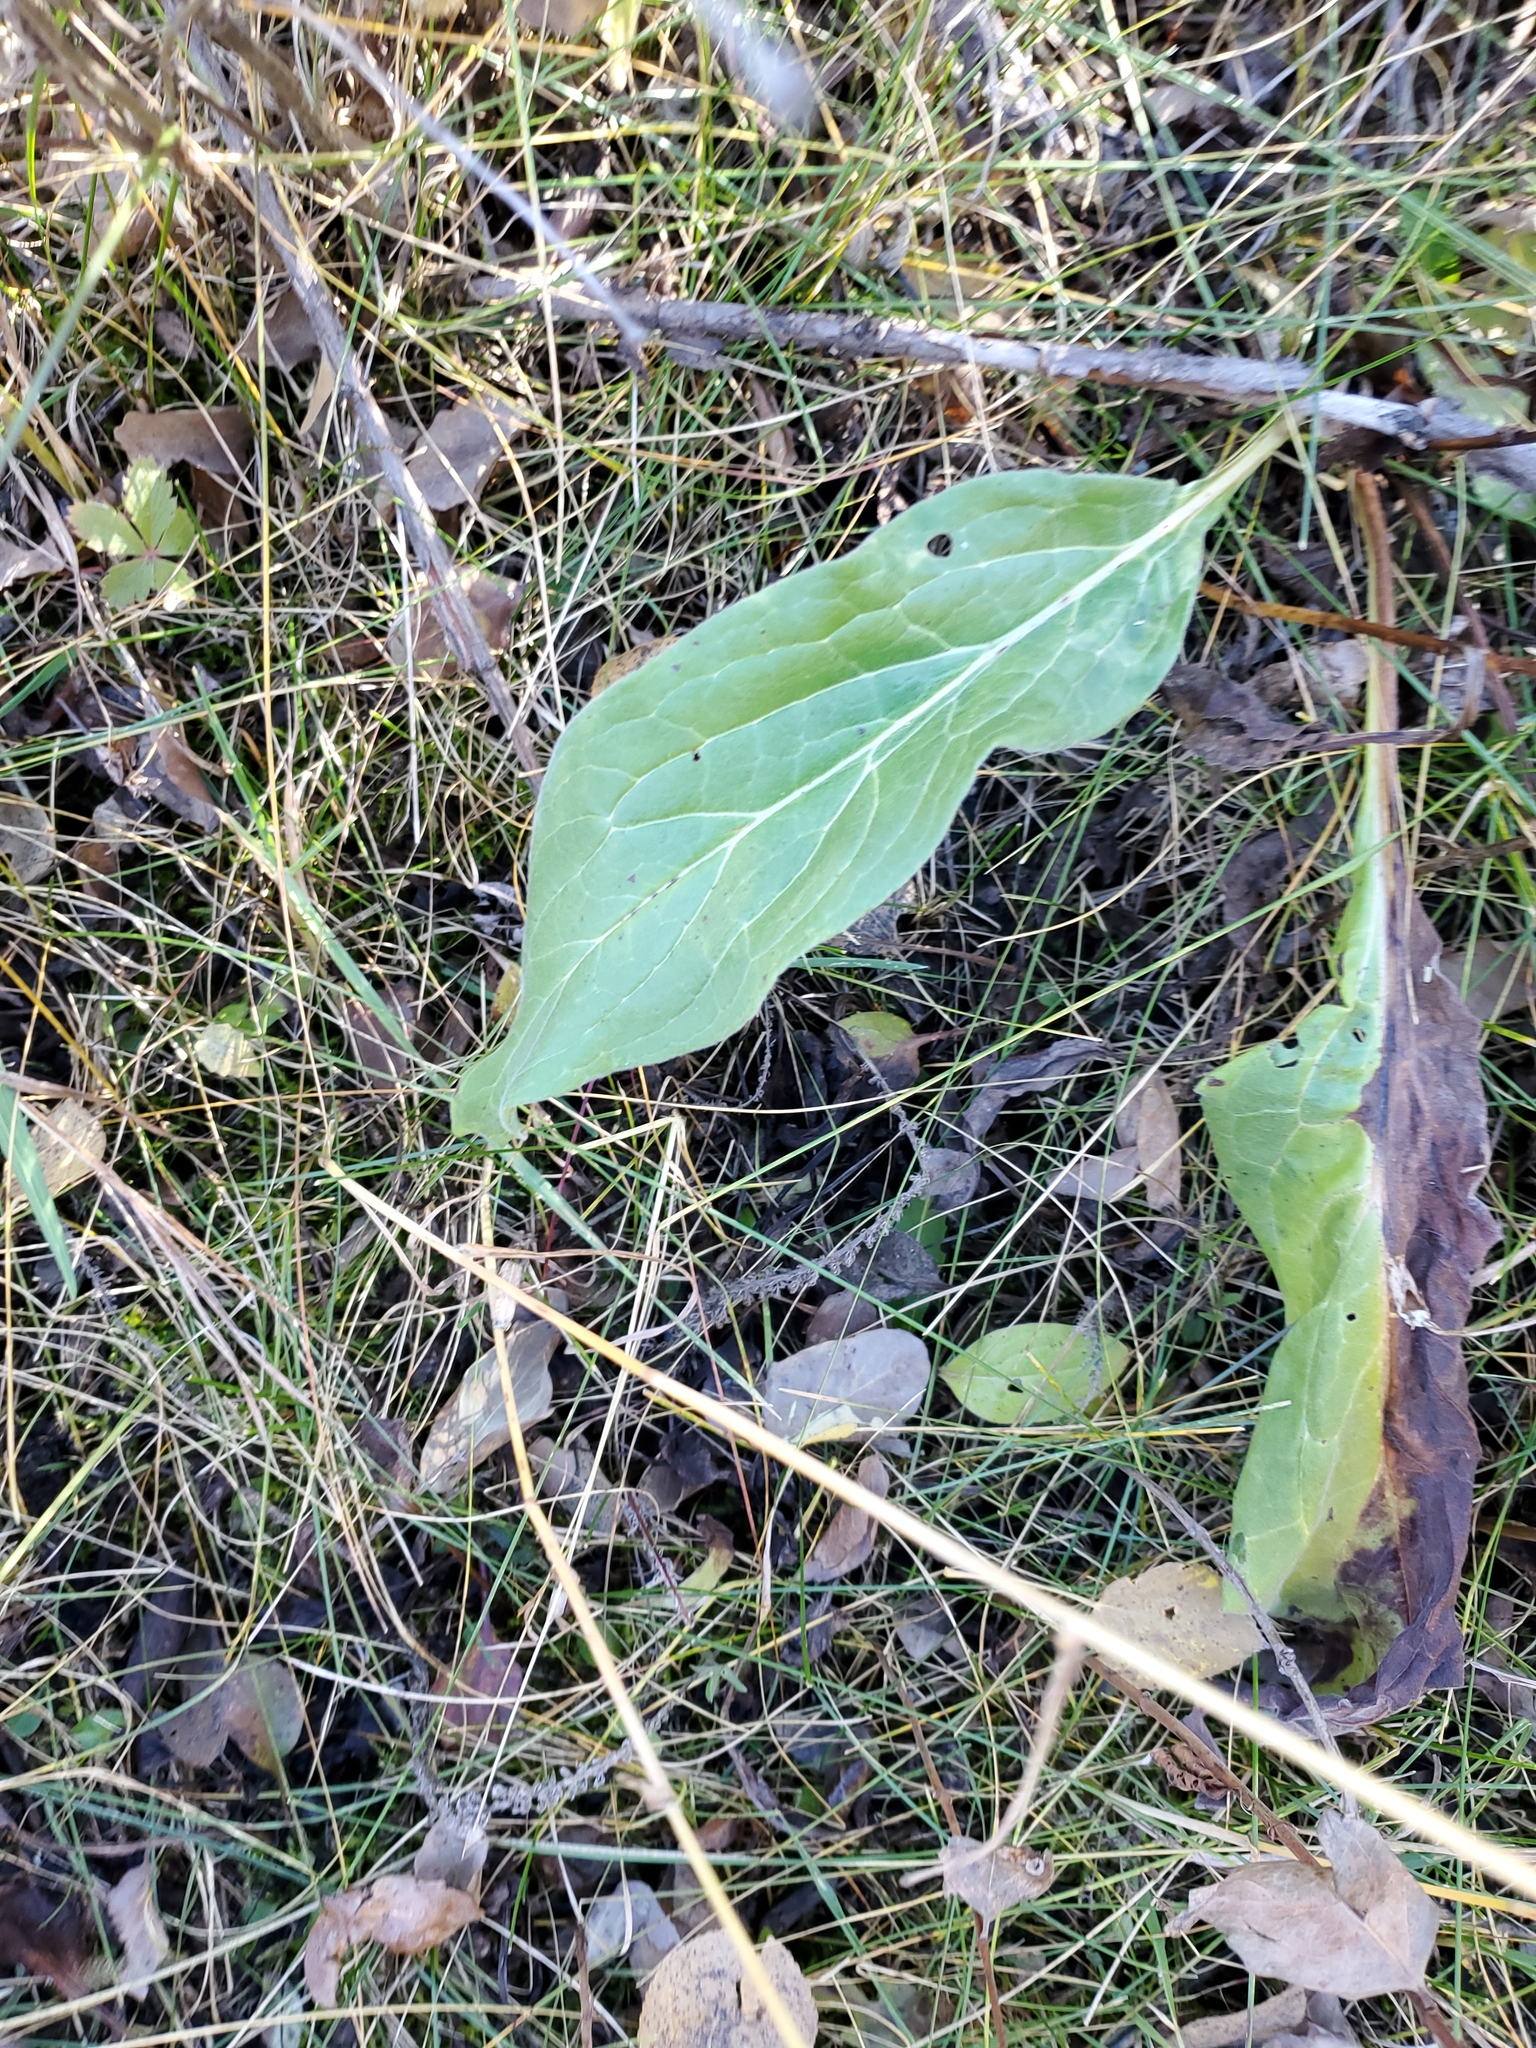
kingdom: Plantae
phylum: Tracheophyta
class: Magnoliopsida
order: Boraginales
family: Boraginaceae
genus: Cynoglossum
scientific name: Cynoglossum officinale
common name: Hound's-tongue
